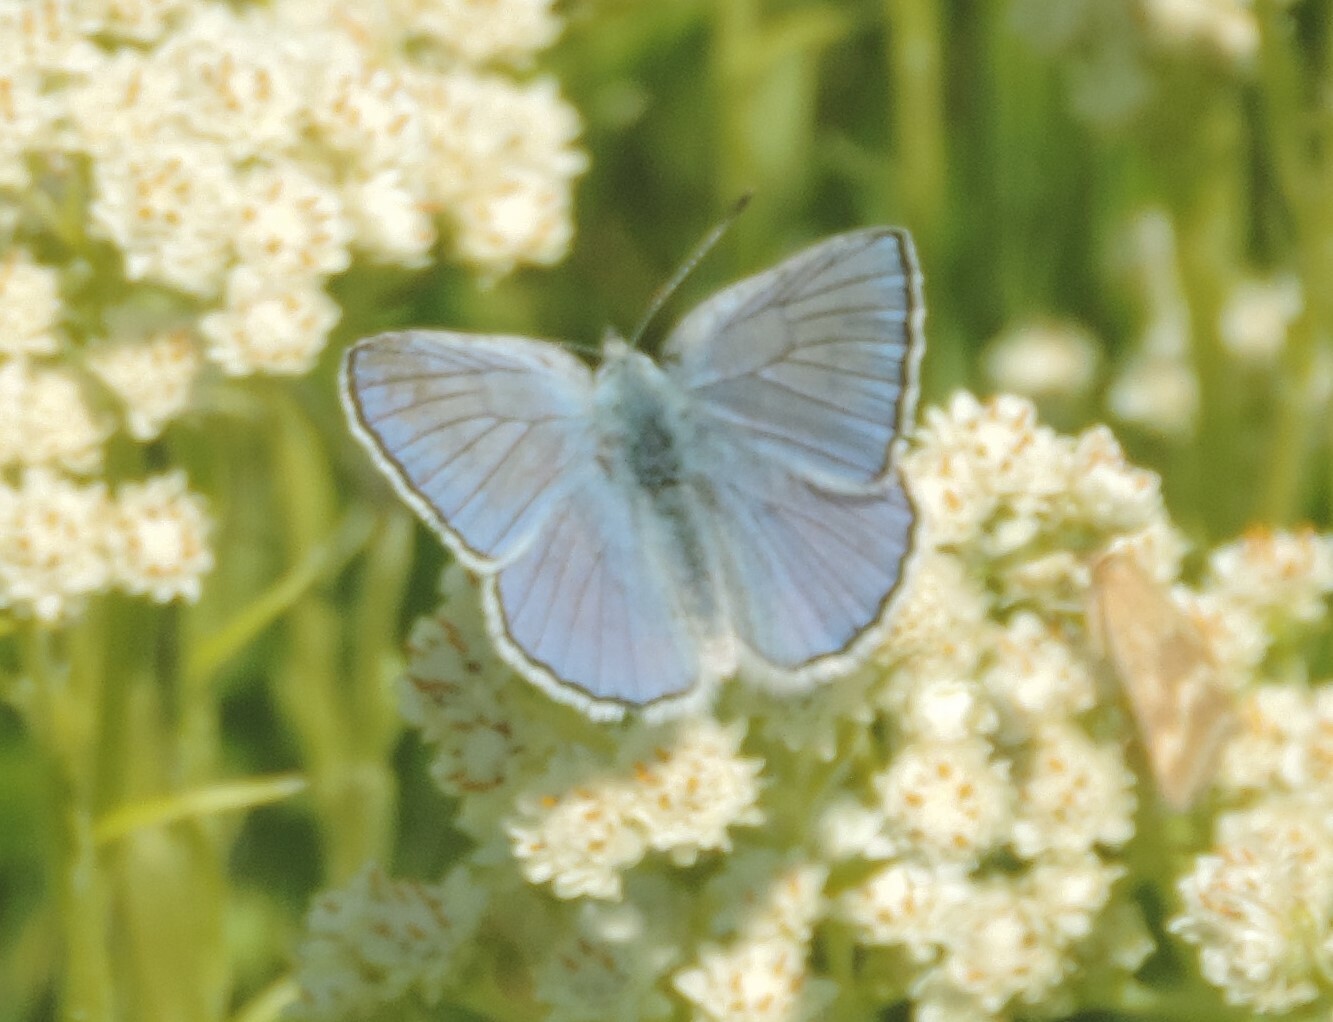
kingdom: Animalia
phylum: Arthropoda
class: Insecta
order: Lepidoptera
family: Lycaenidae
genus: Tharsalea
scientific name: Tharsalea heteronea
